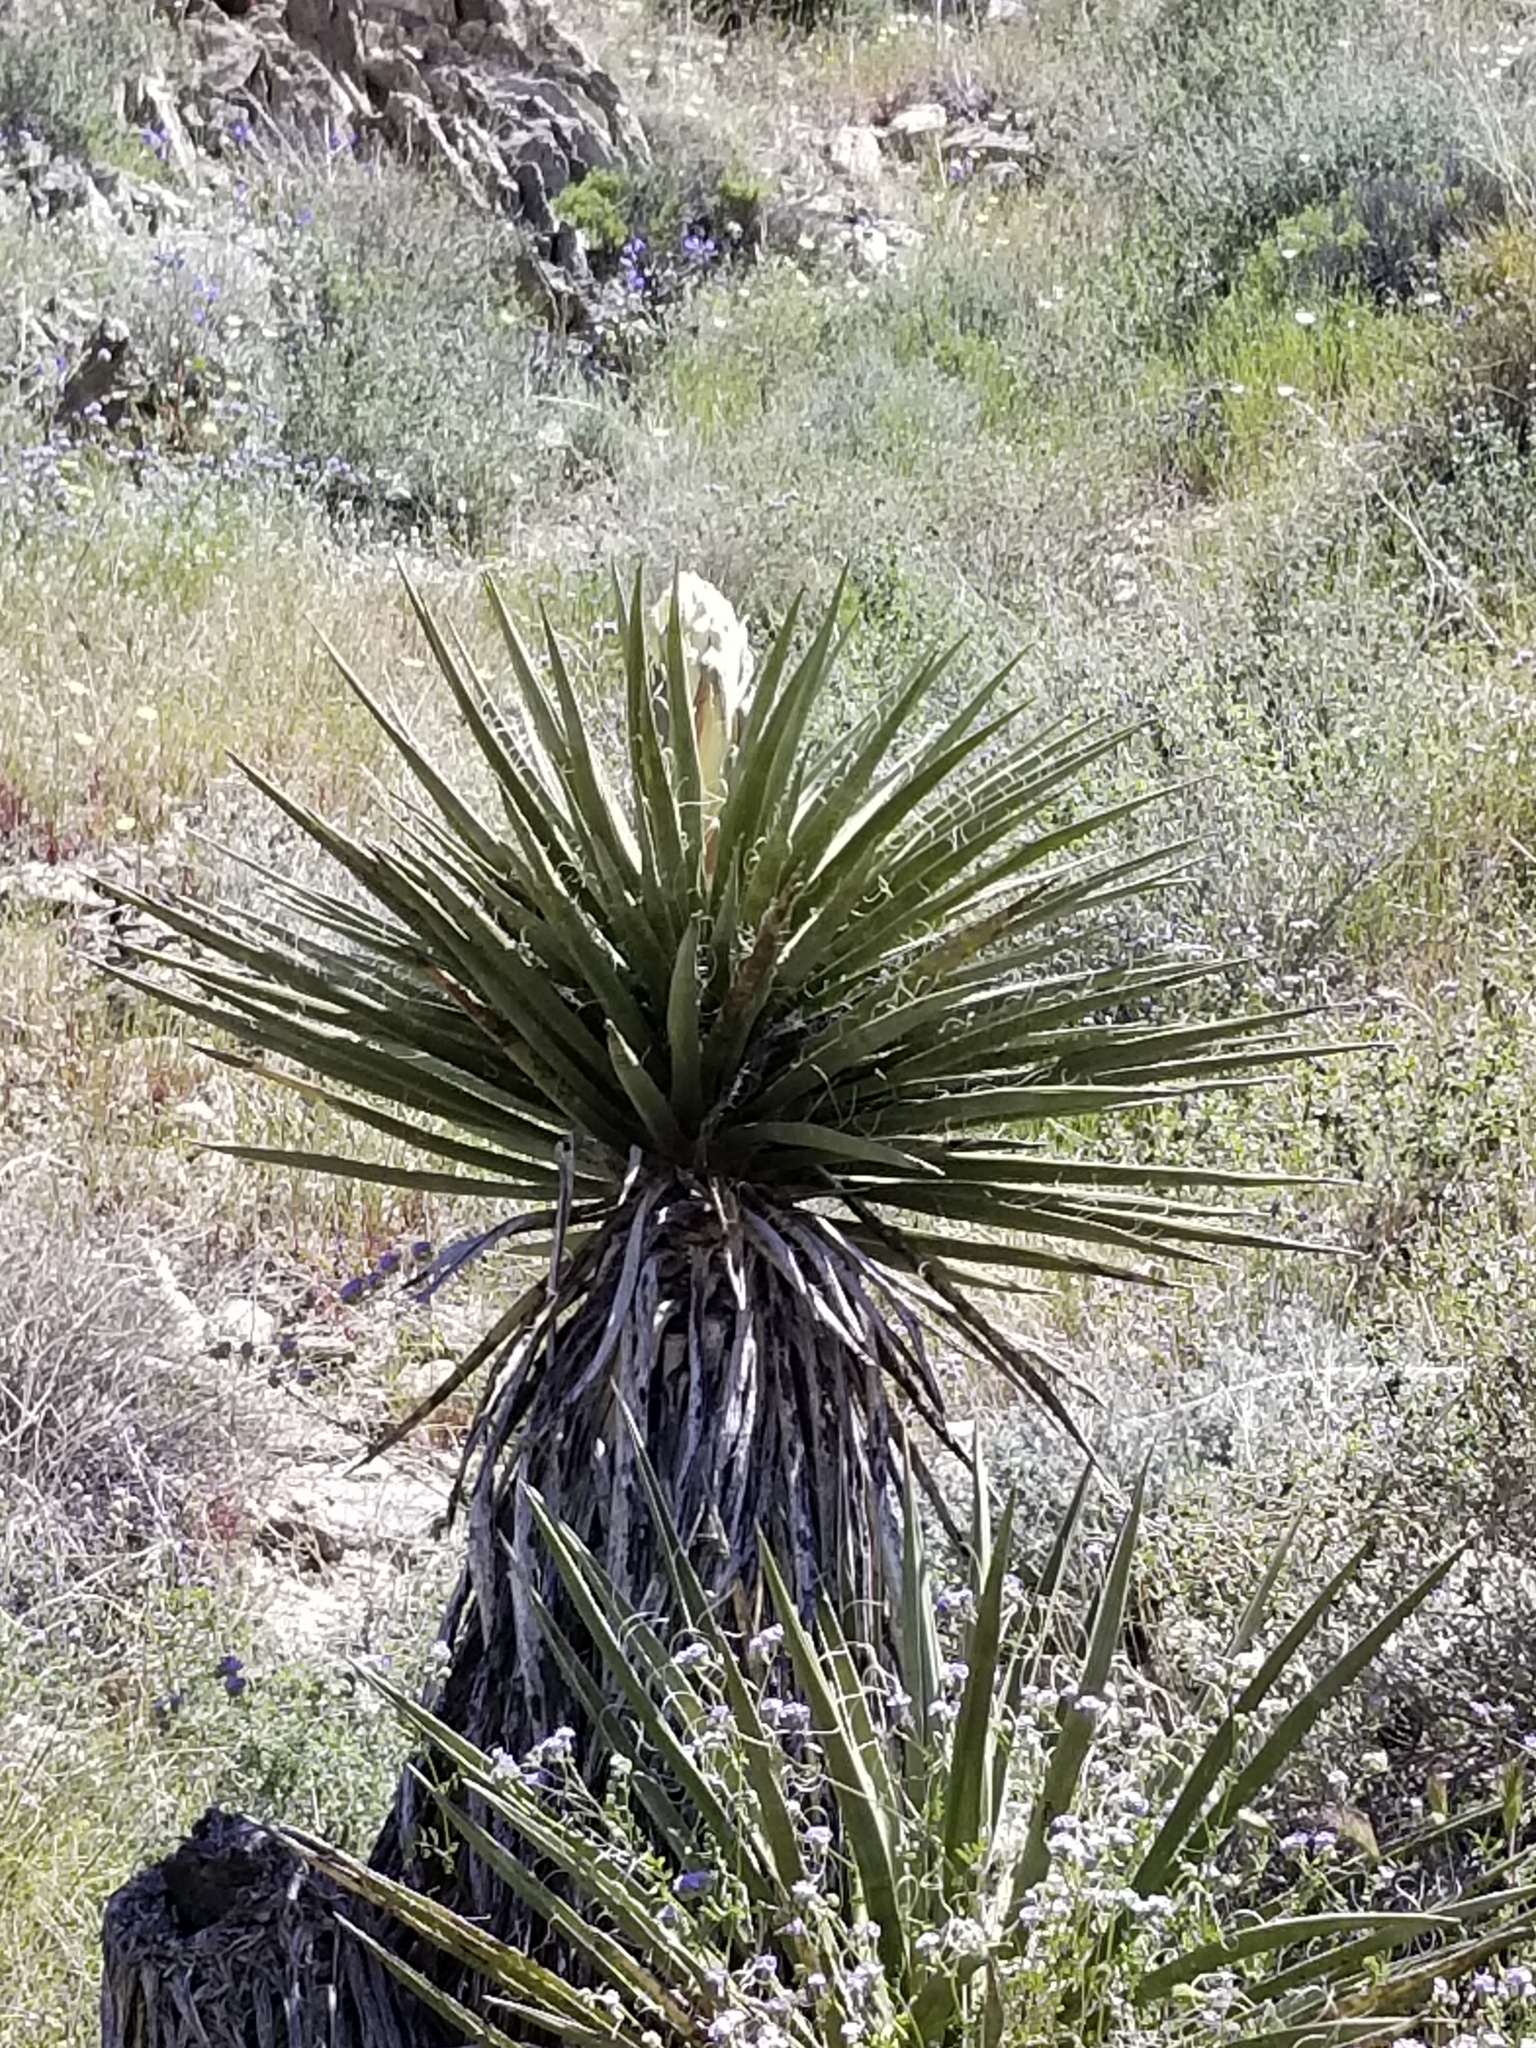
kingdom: Plantae
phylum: Tracheophyta
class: Liliopsida
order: Asparagales
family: Asparagaceae
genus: Yucca
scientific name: Yucca schidigera
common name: Mojave yucca
